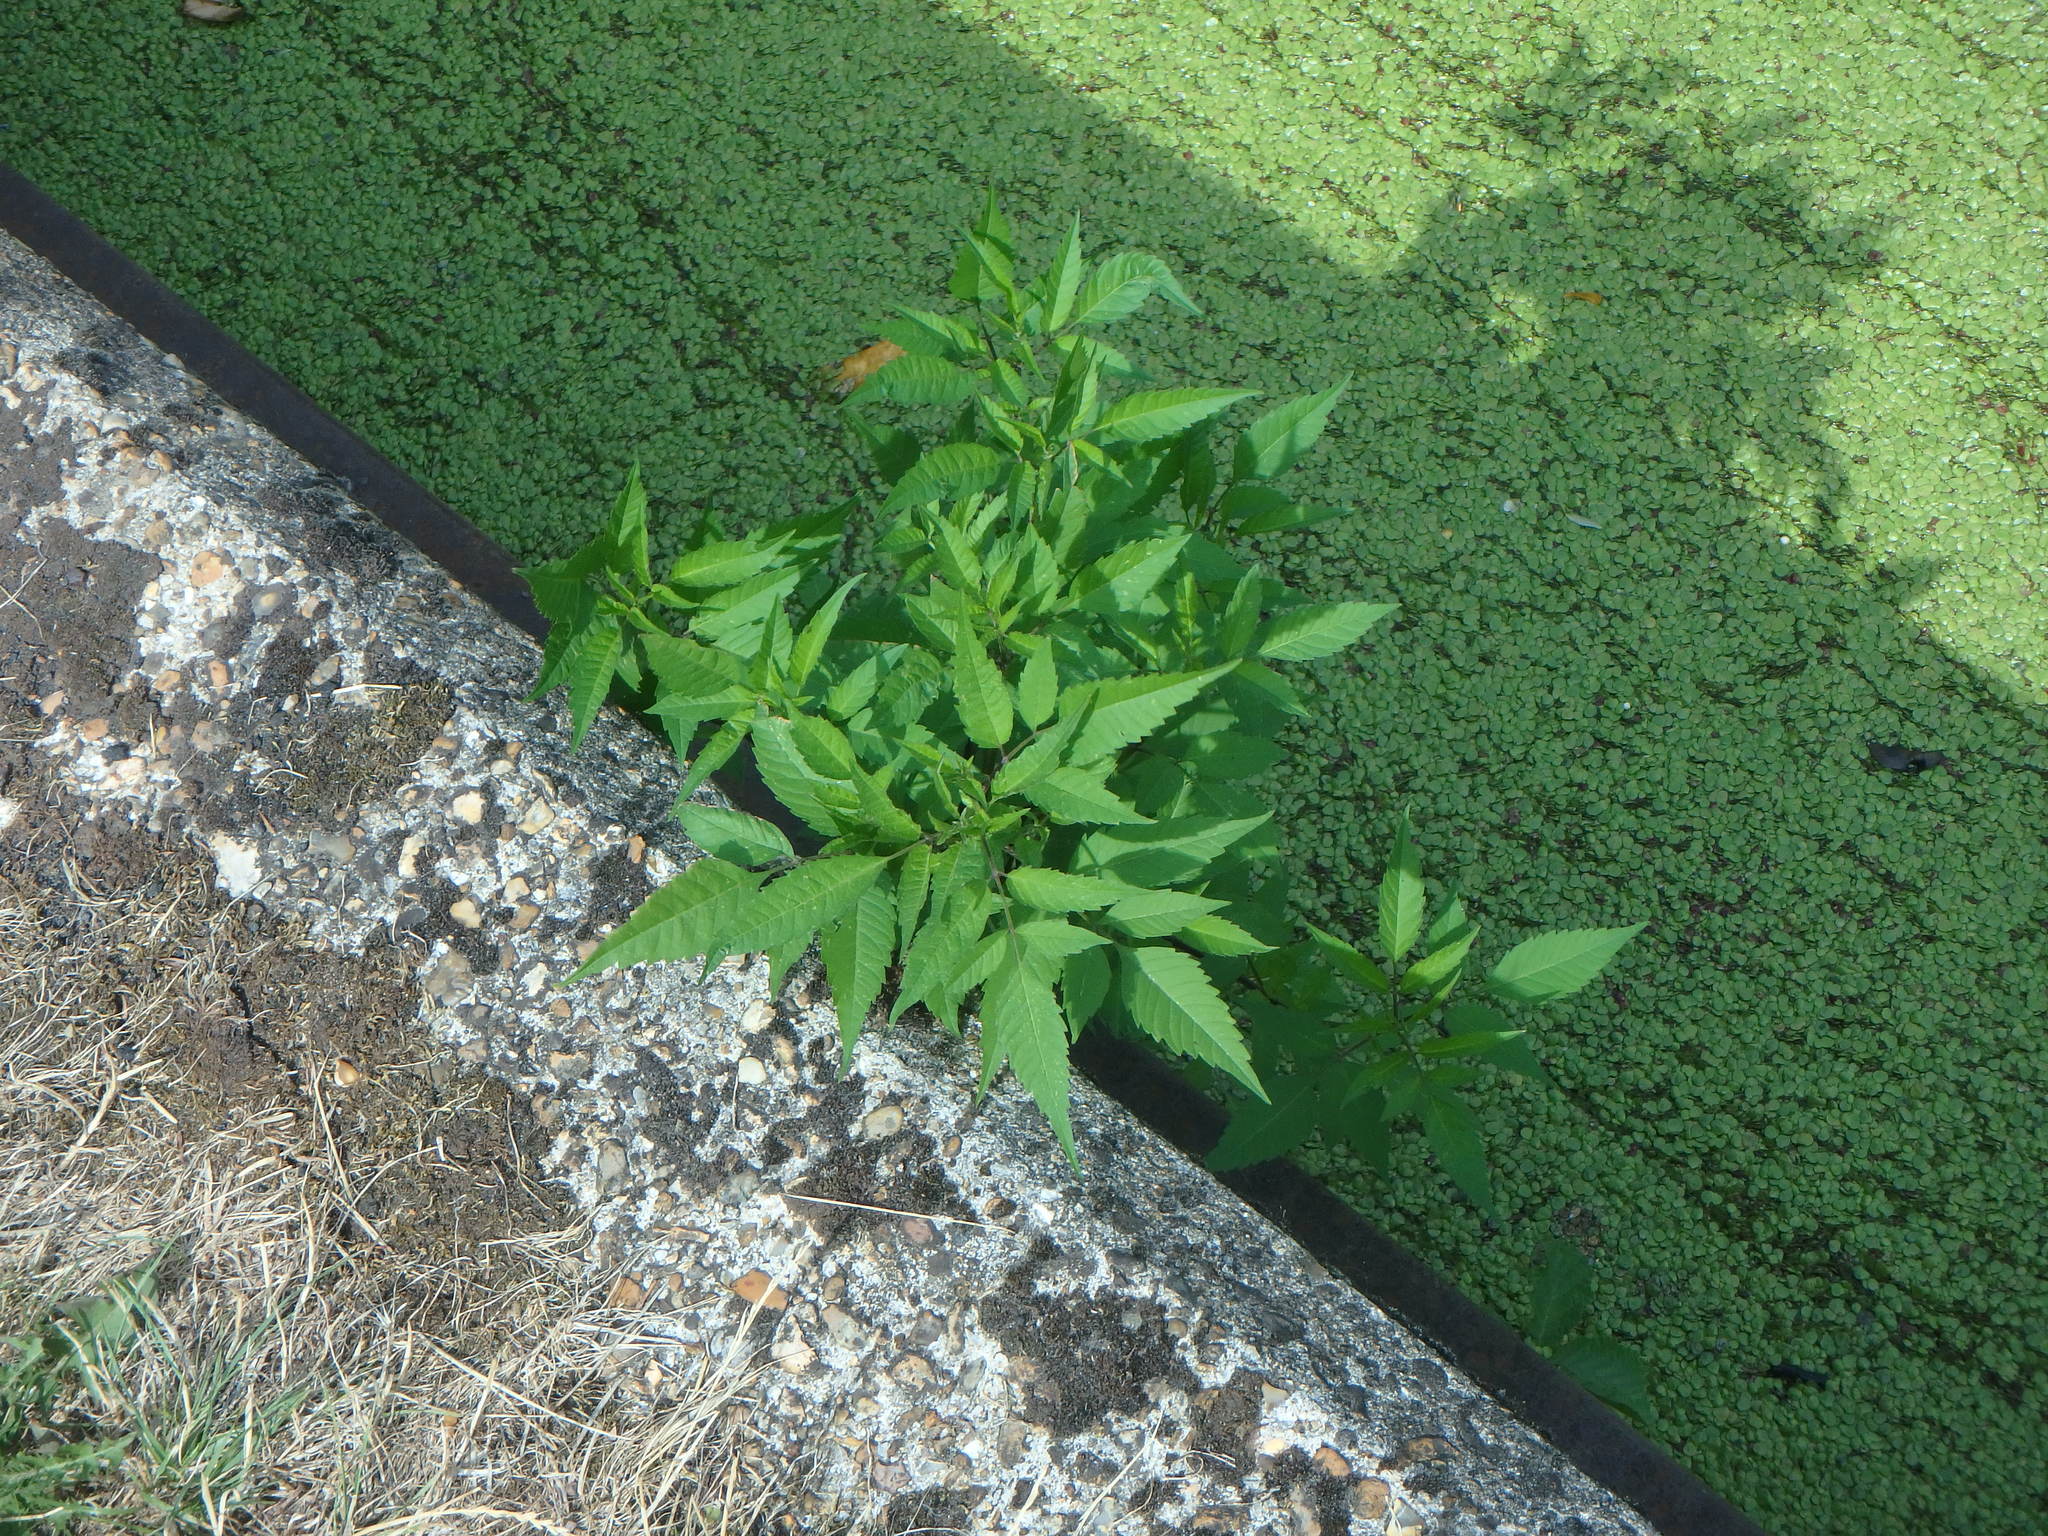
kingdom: Plantae
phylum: Tracheophyta
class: Magnoliopsida
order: Asterales
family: Asteraceae
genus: Bidens
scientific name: Bidens frondosa
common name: Beggarticks
